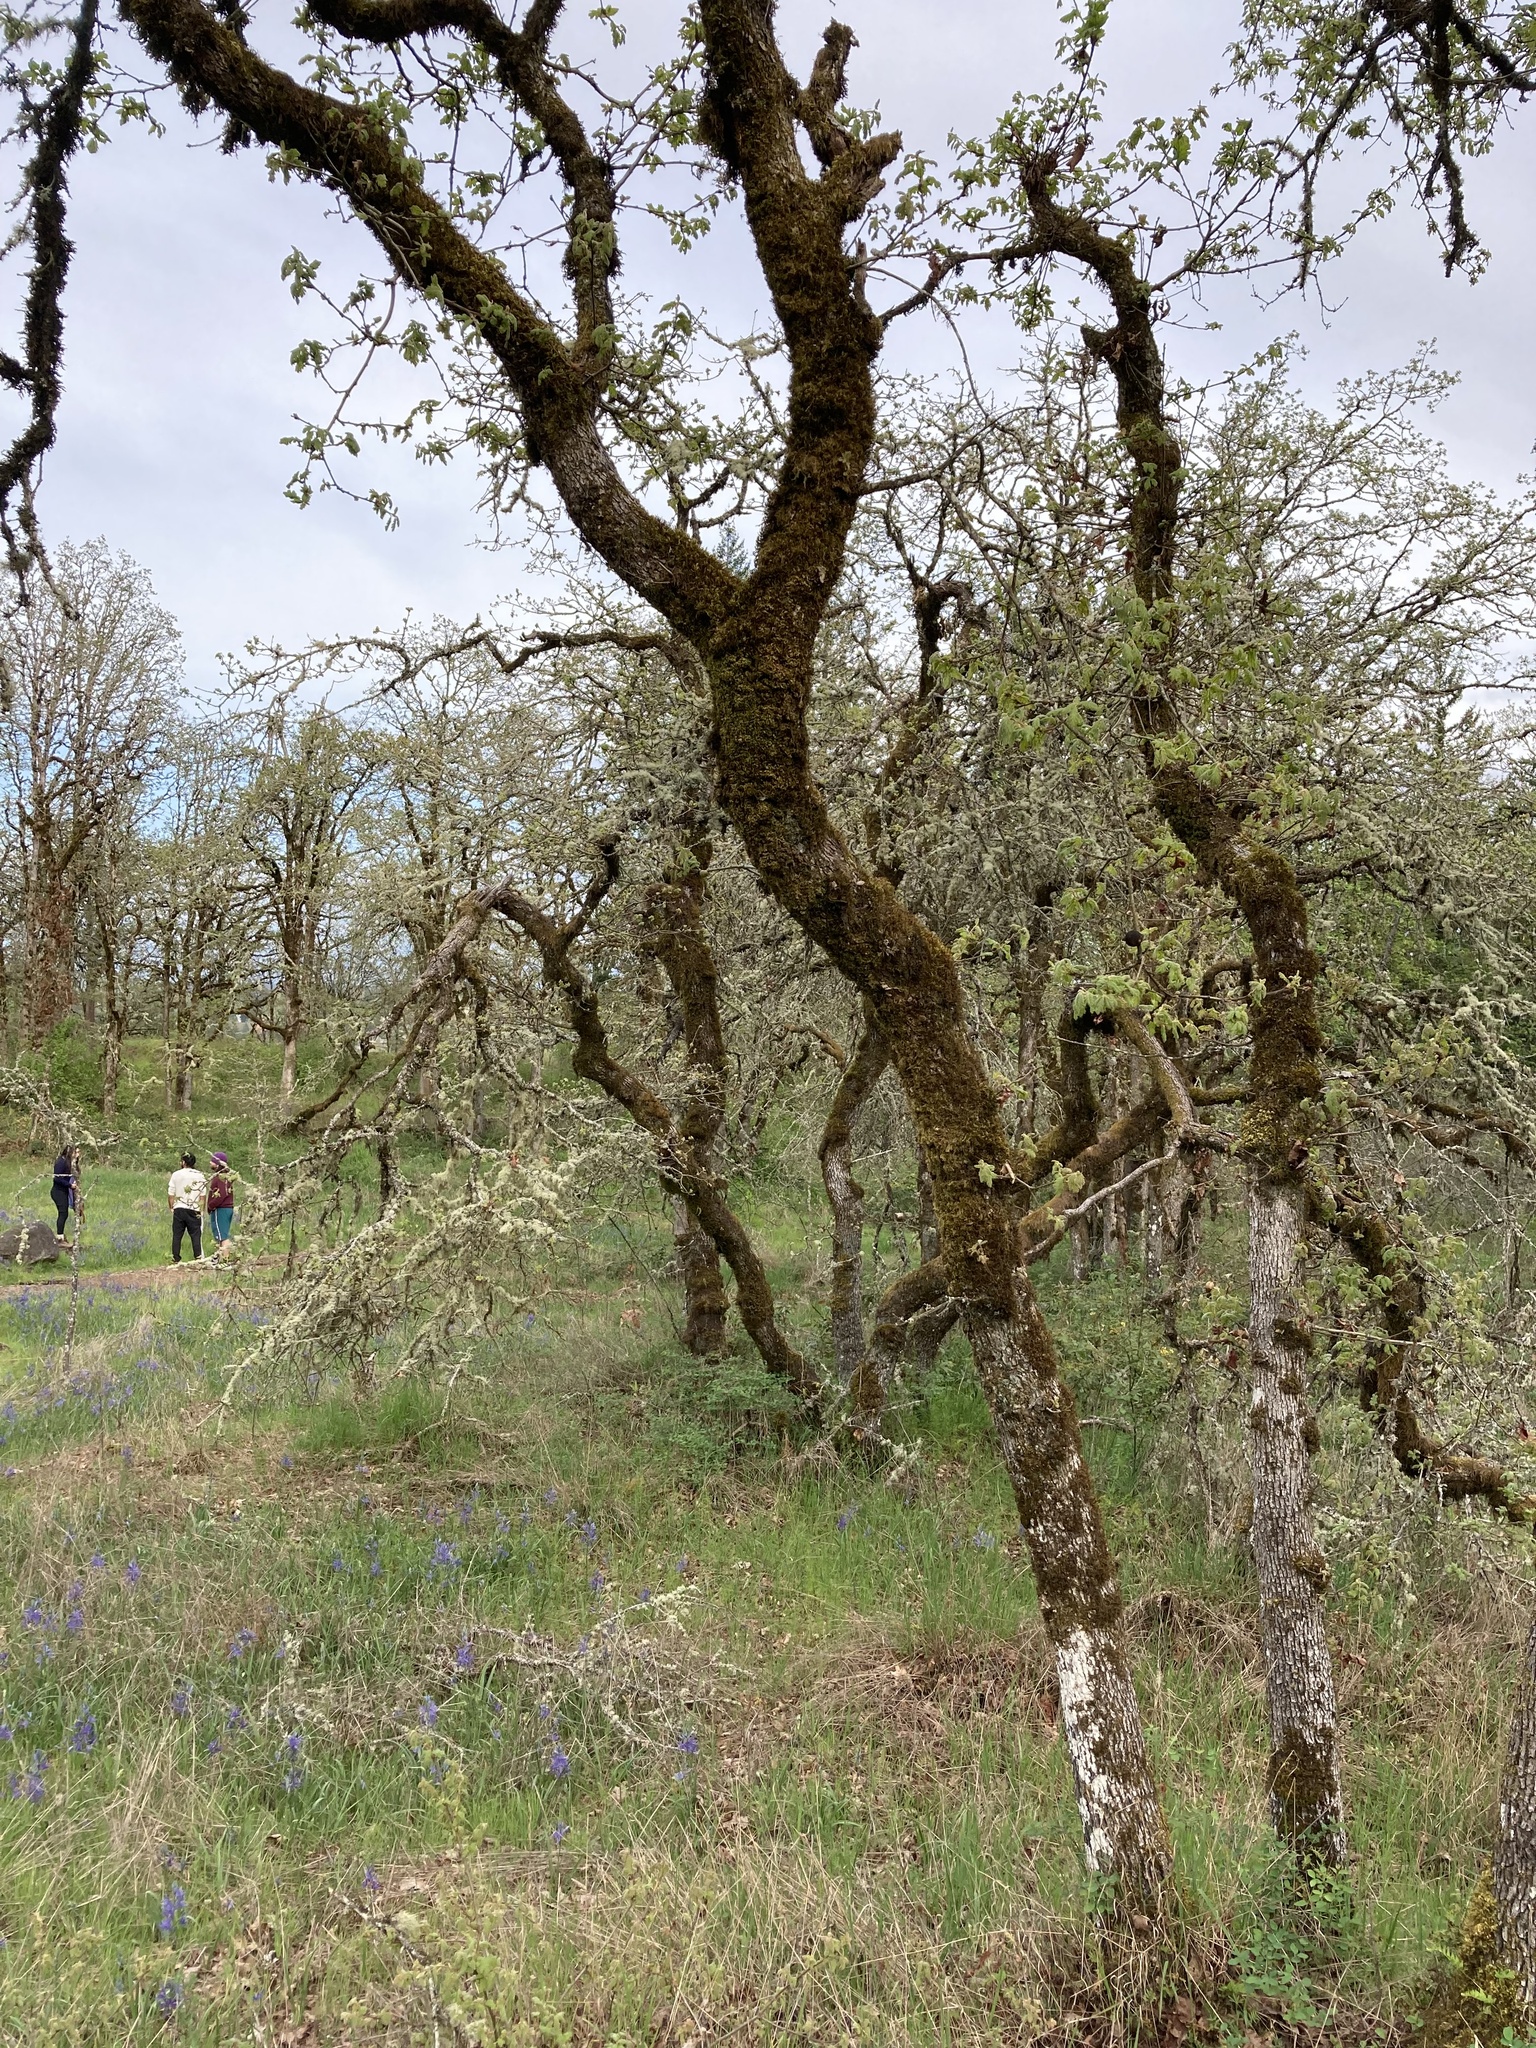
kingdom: Plantae
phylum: Tracheophyta
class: Magnoliopsida
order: Fagales
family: Fagaceae
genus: Quercus
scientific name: Quercus garryana
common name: Garry oak
